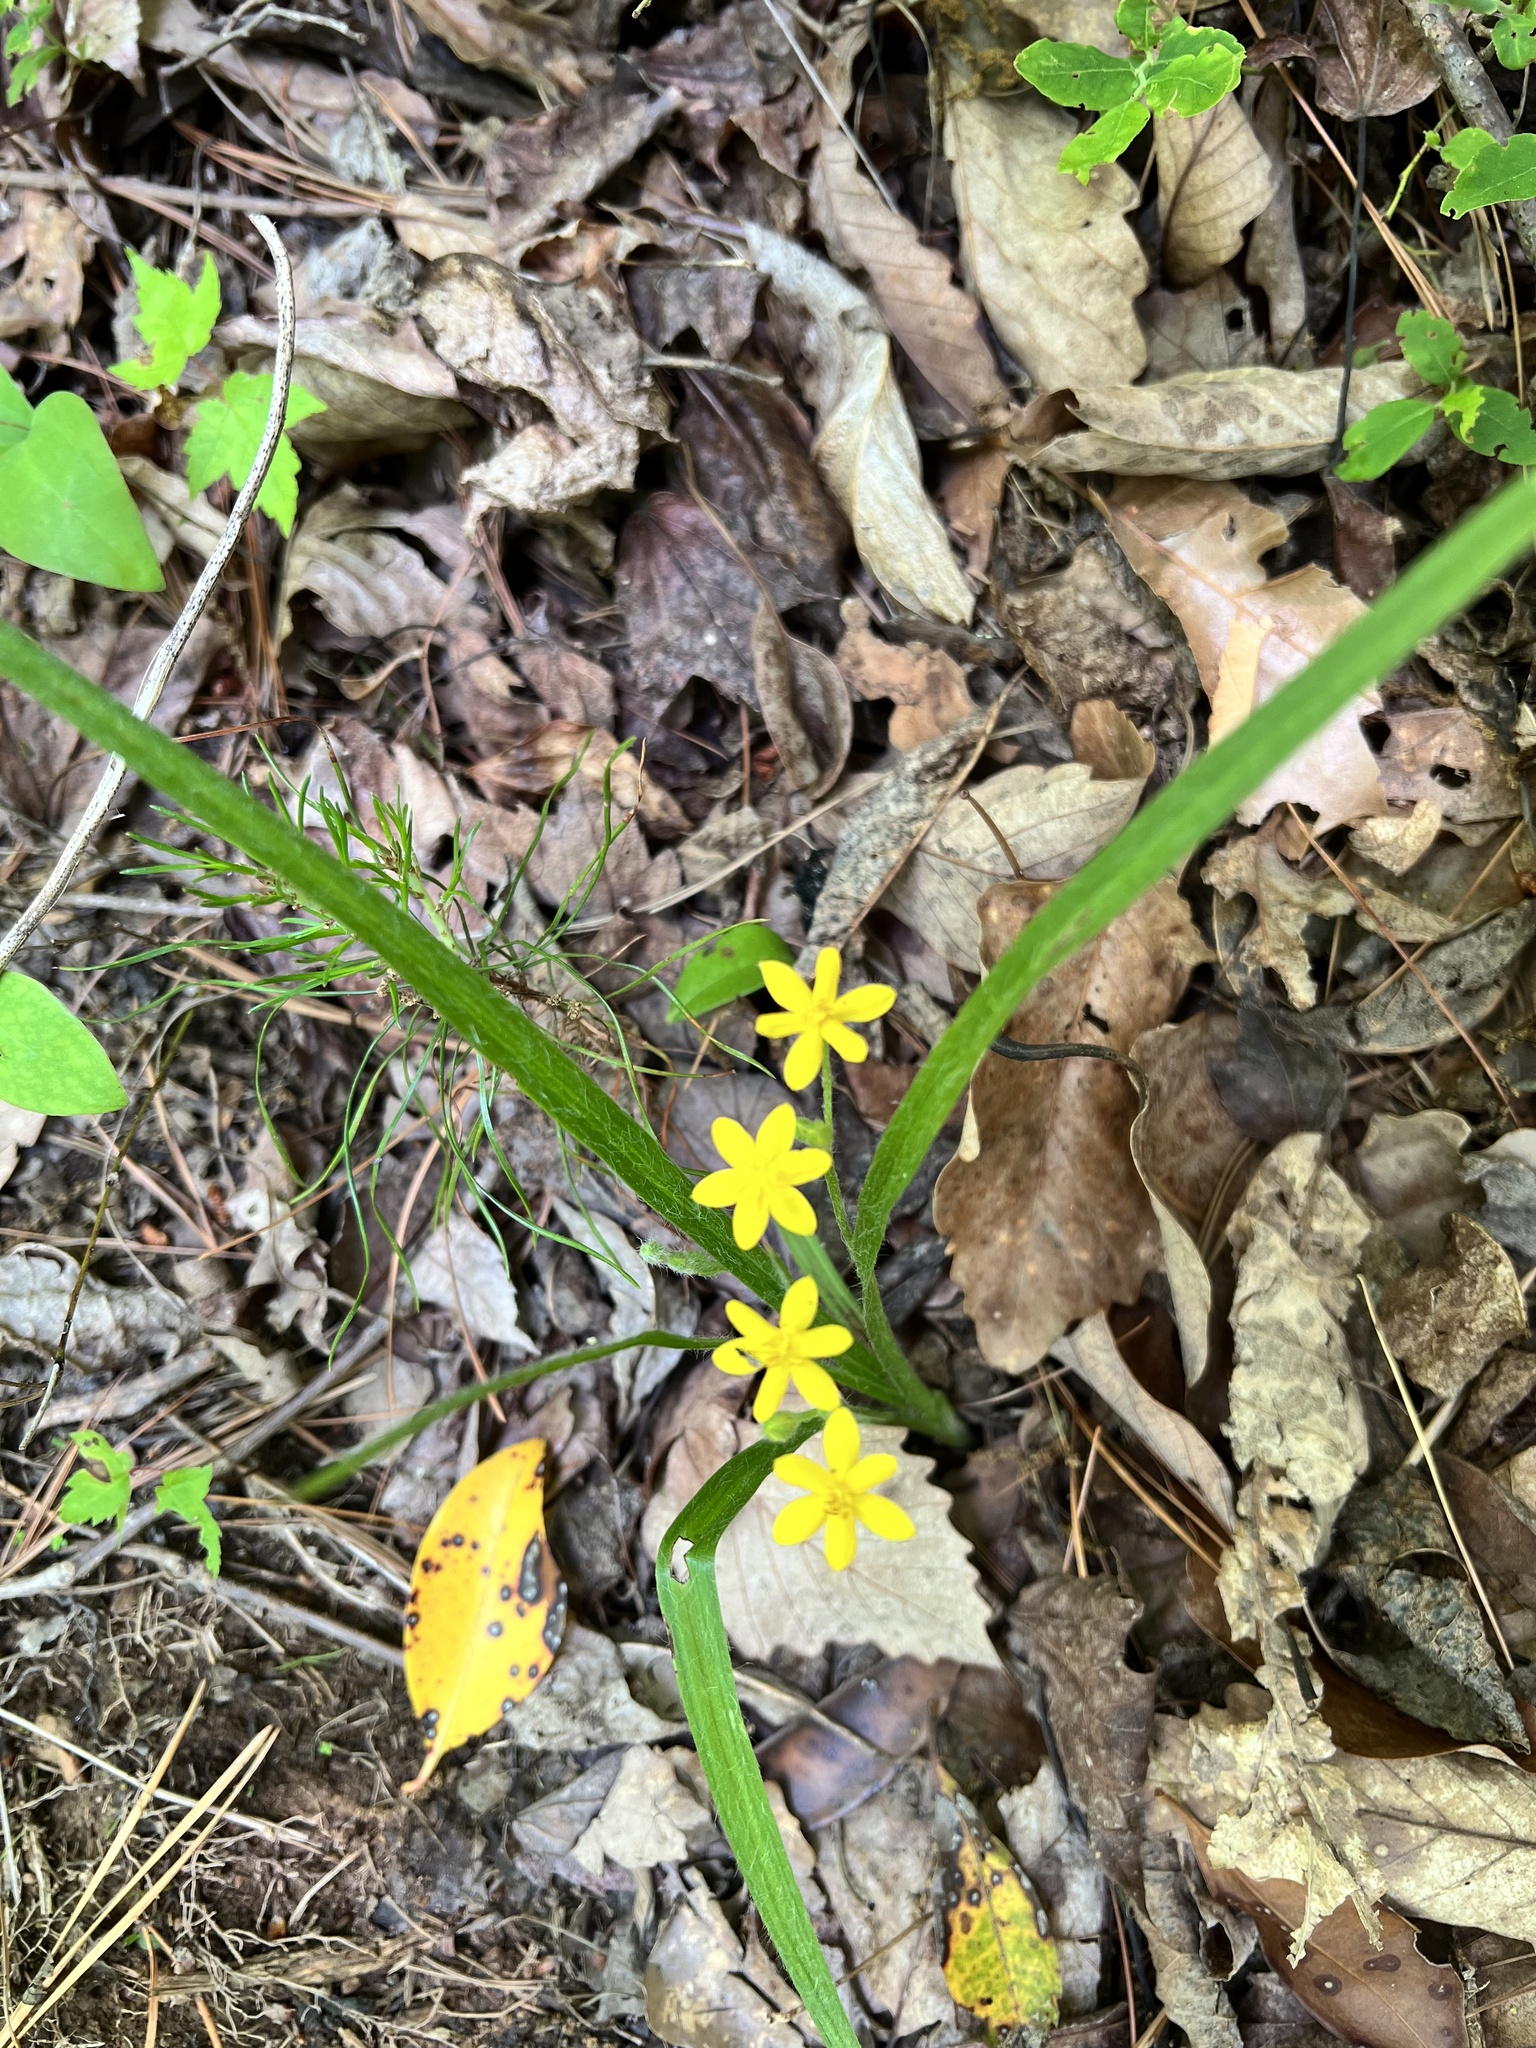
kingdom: Plantae
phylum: Tracheophyta
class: Liliopsida
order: Asparagales
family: Hypoxidaceae
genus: Hypoxis
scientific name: Hypoxis hirsuta
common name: Common goldstar
